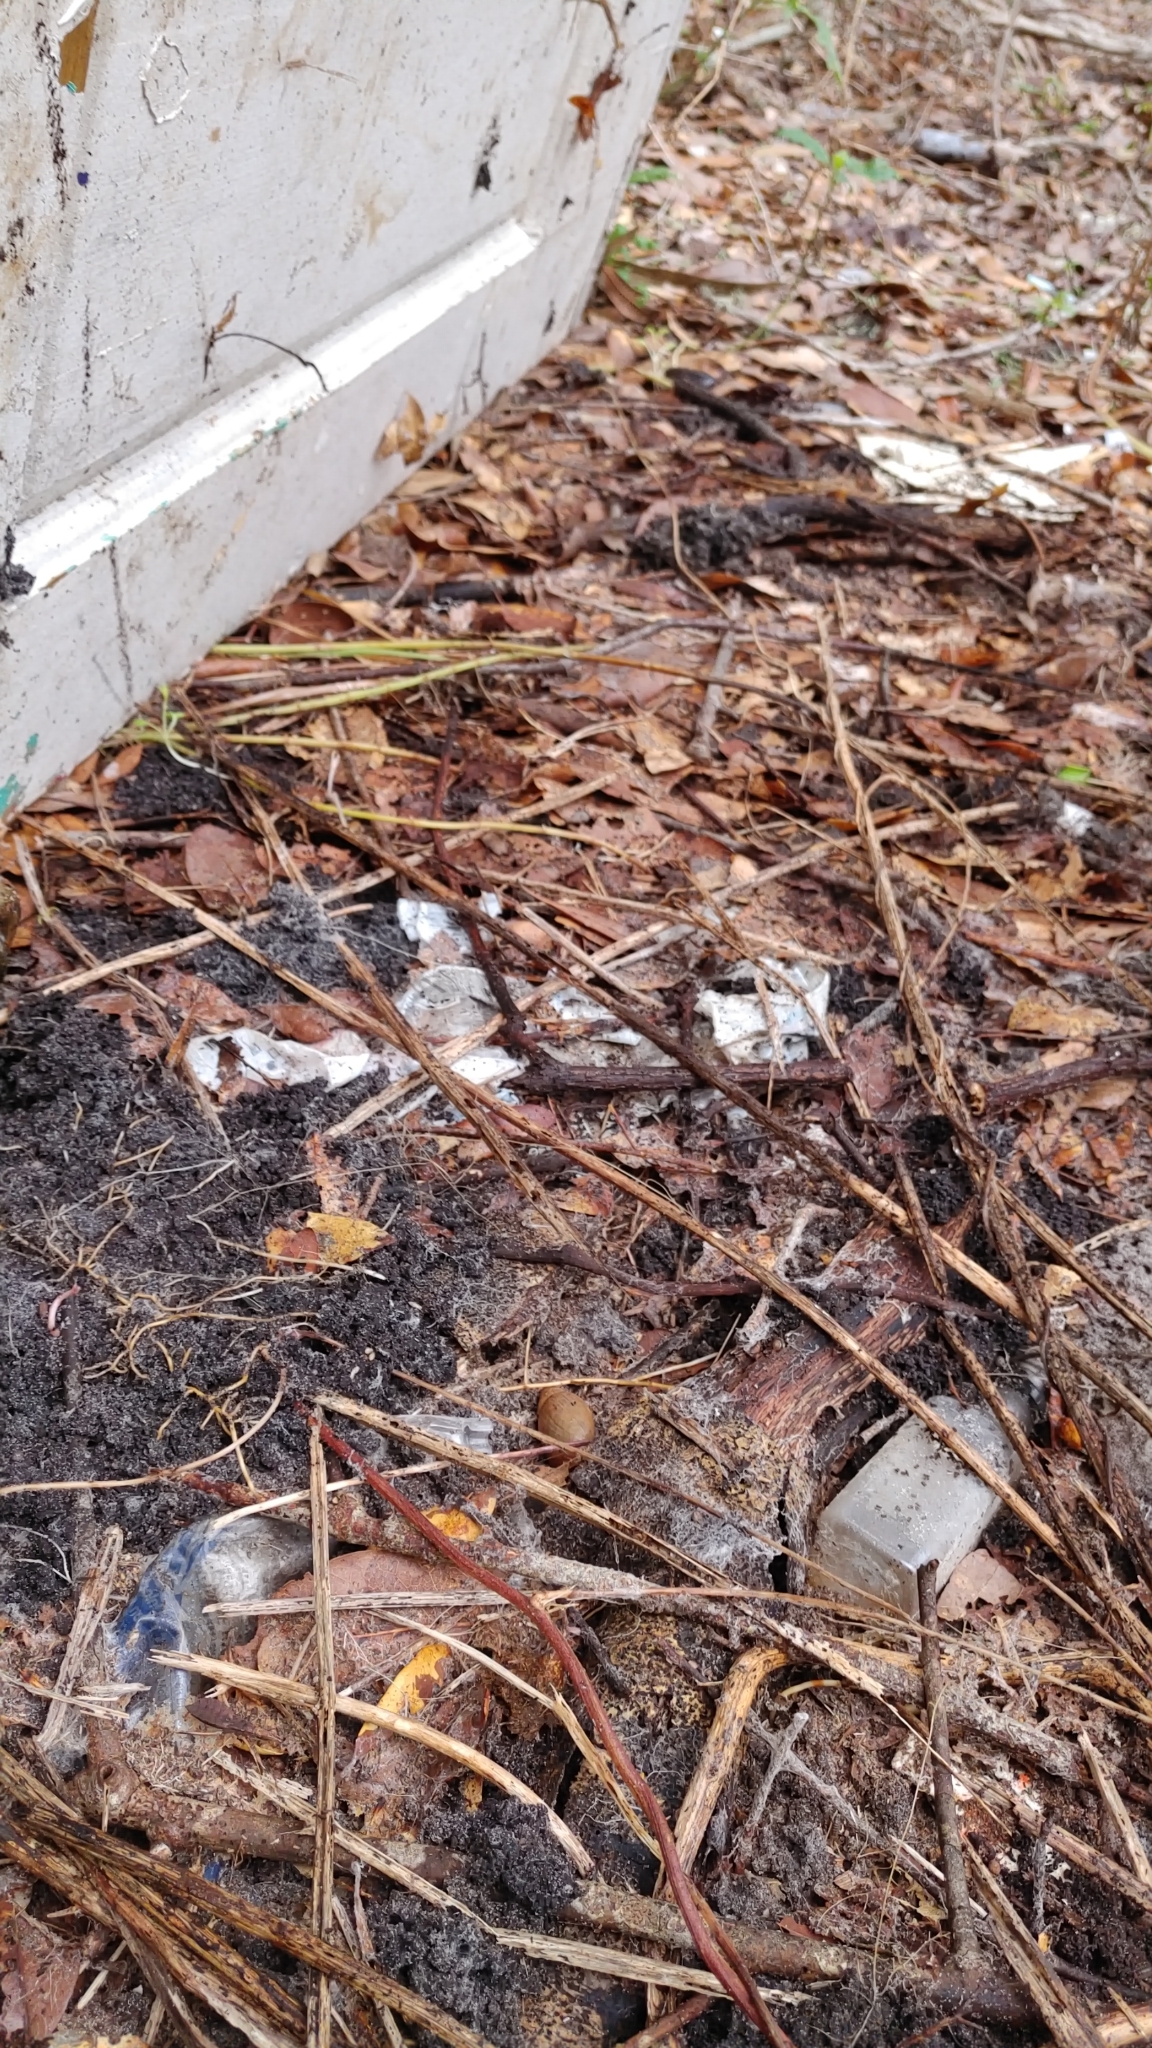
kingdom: Animalia
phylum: Chordata
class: Amphibia
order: Anura
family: Eleutherodactylidae
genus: Eleutherodactylus
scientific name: Eleutherodactylus planirostris
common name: Greenhouse frog
